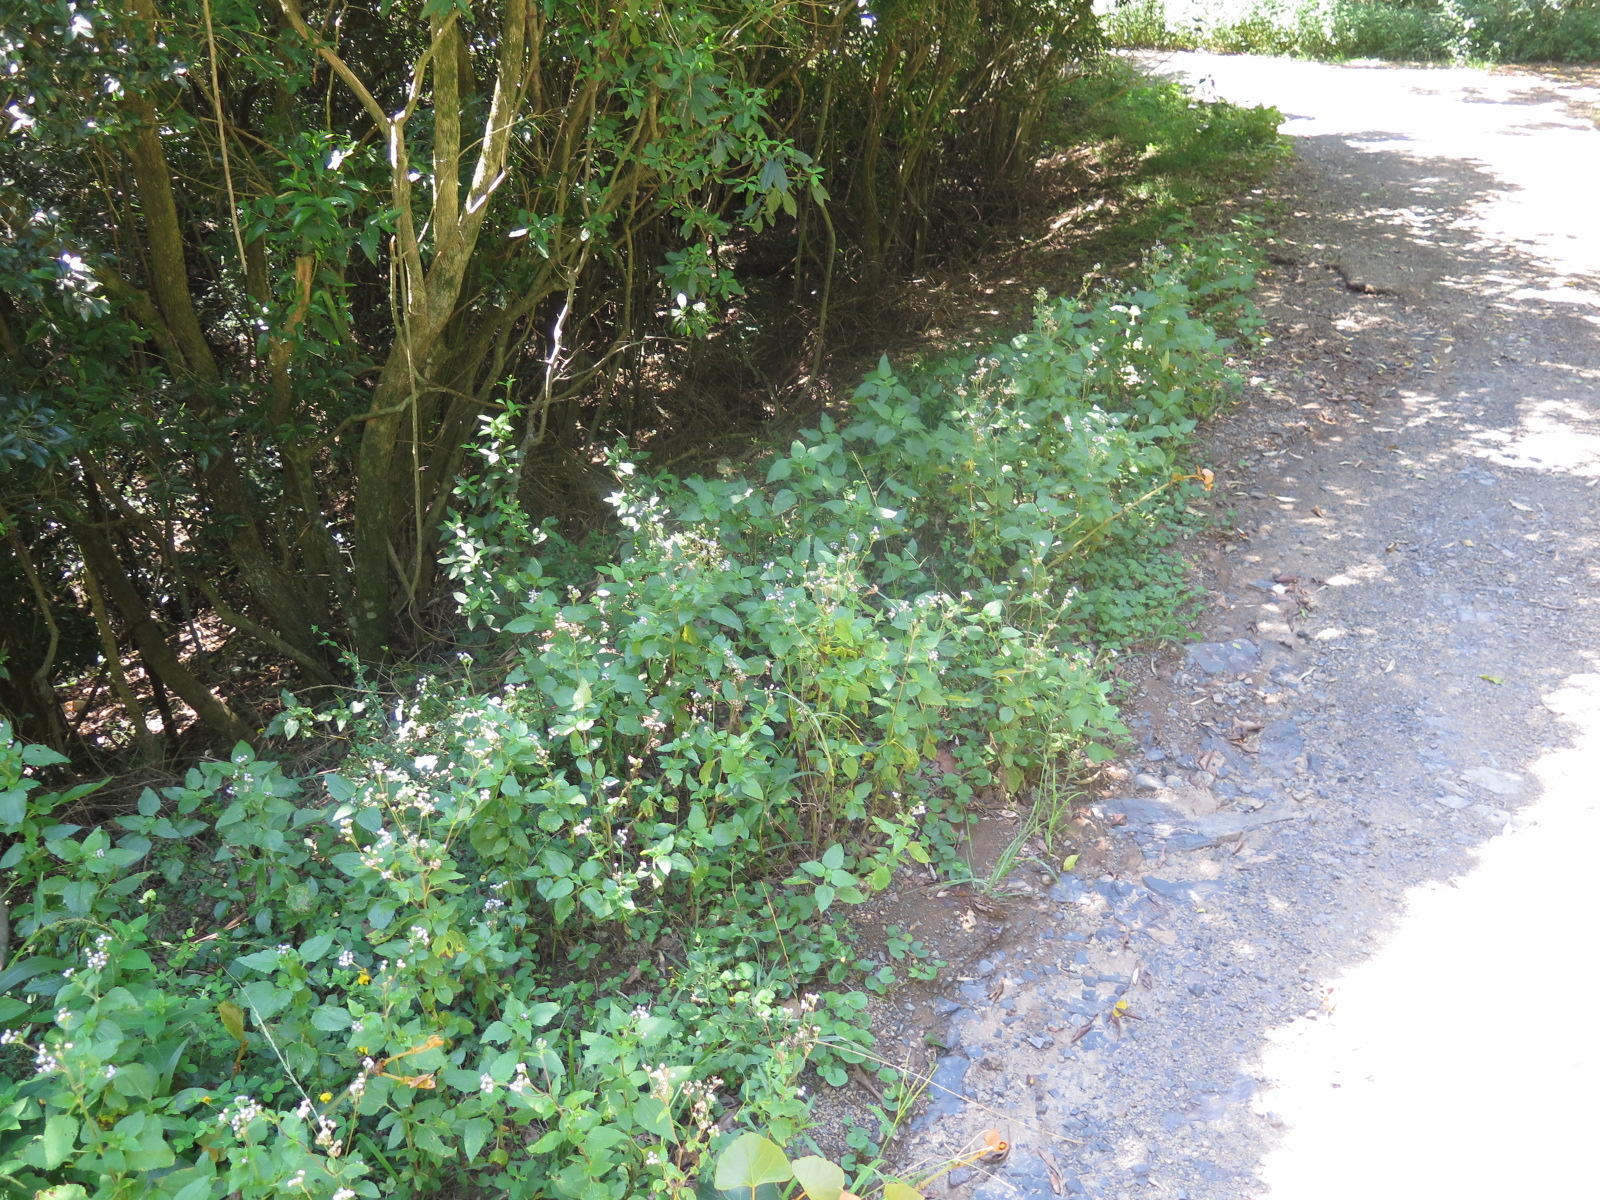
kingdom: Plantae
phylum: Tracheophyta
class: Magnoliopsida
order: Asterales
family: Asteraceae
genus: Ageratum
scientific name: Ageratum conyzoides
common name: Tropical whiteweed
